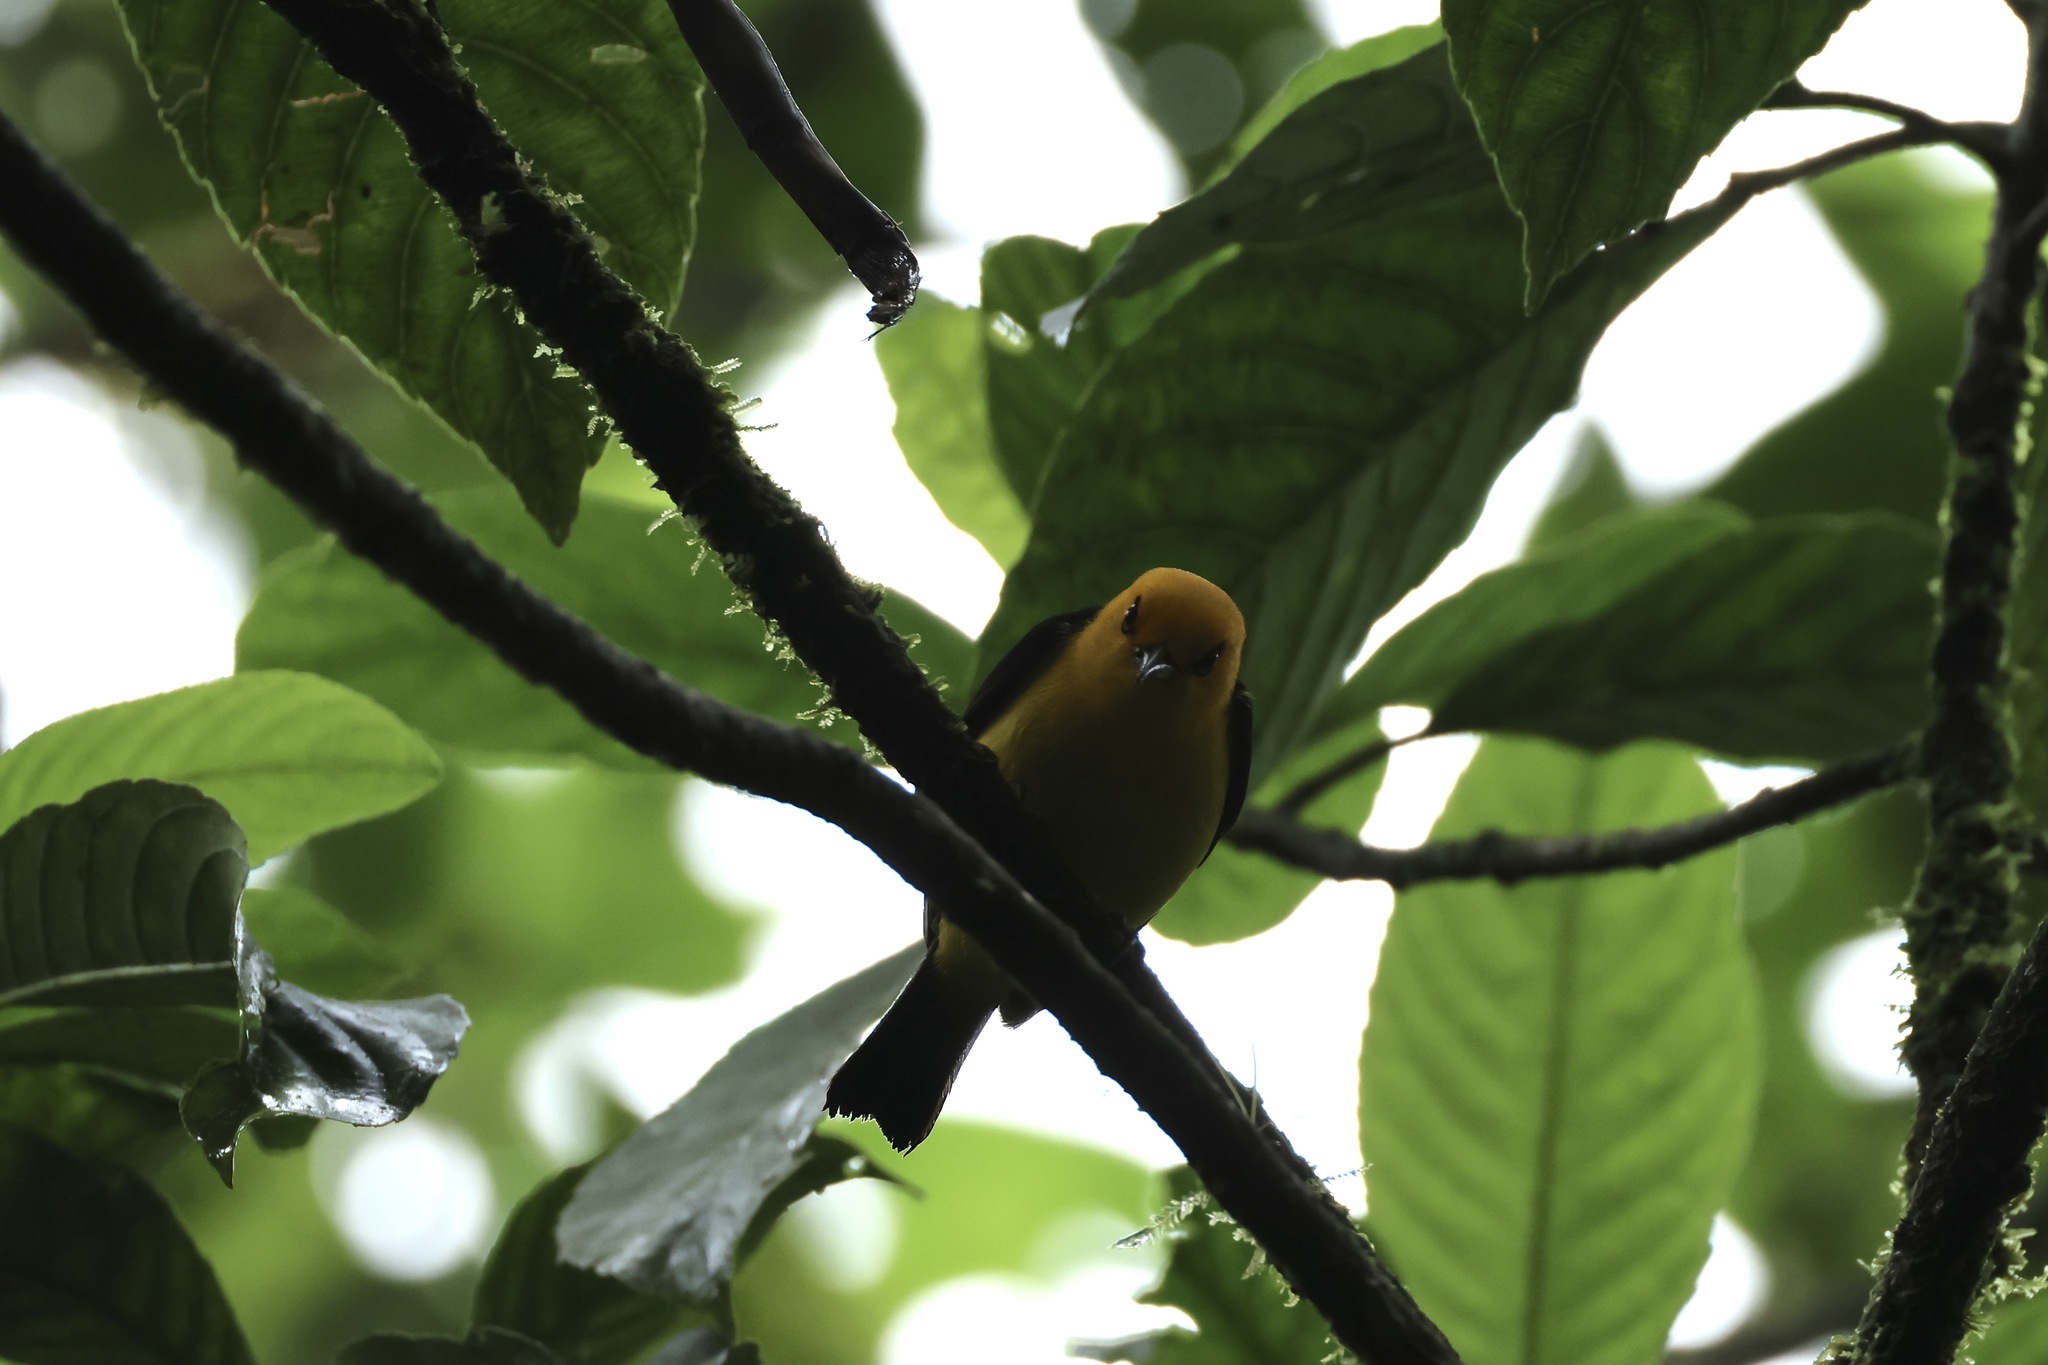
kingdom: Animalia
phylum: Chordata
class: Aves
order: Passeriformes
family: Thraupidae
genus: Chrysothlypis
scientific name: Chrysothlypis chrysomelas
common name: Black-and-yellow tanager
